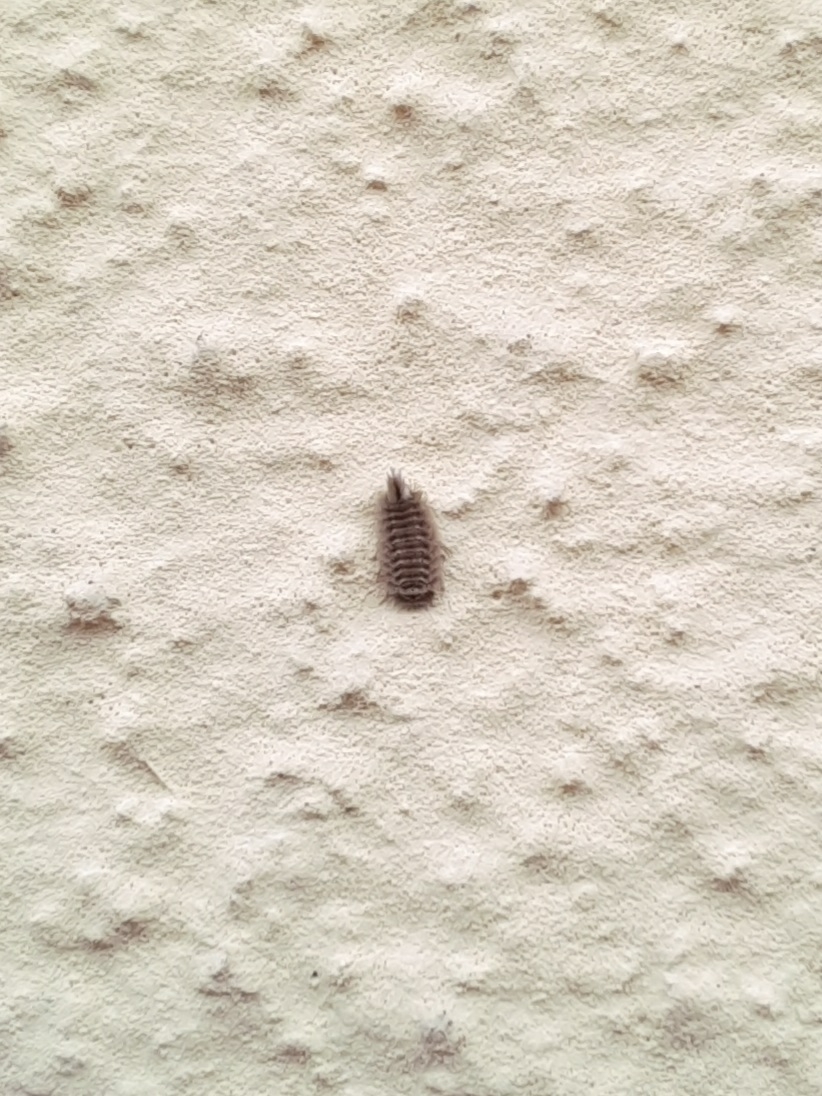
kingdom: Animalia
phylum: Arthropoda
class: Diplopoda
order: Polyxenida
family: Polyxenidae
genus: Polyxenus
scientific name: Polyxenus lagurus
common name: Bristly millipede
